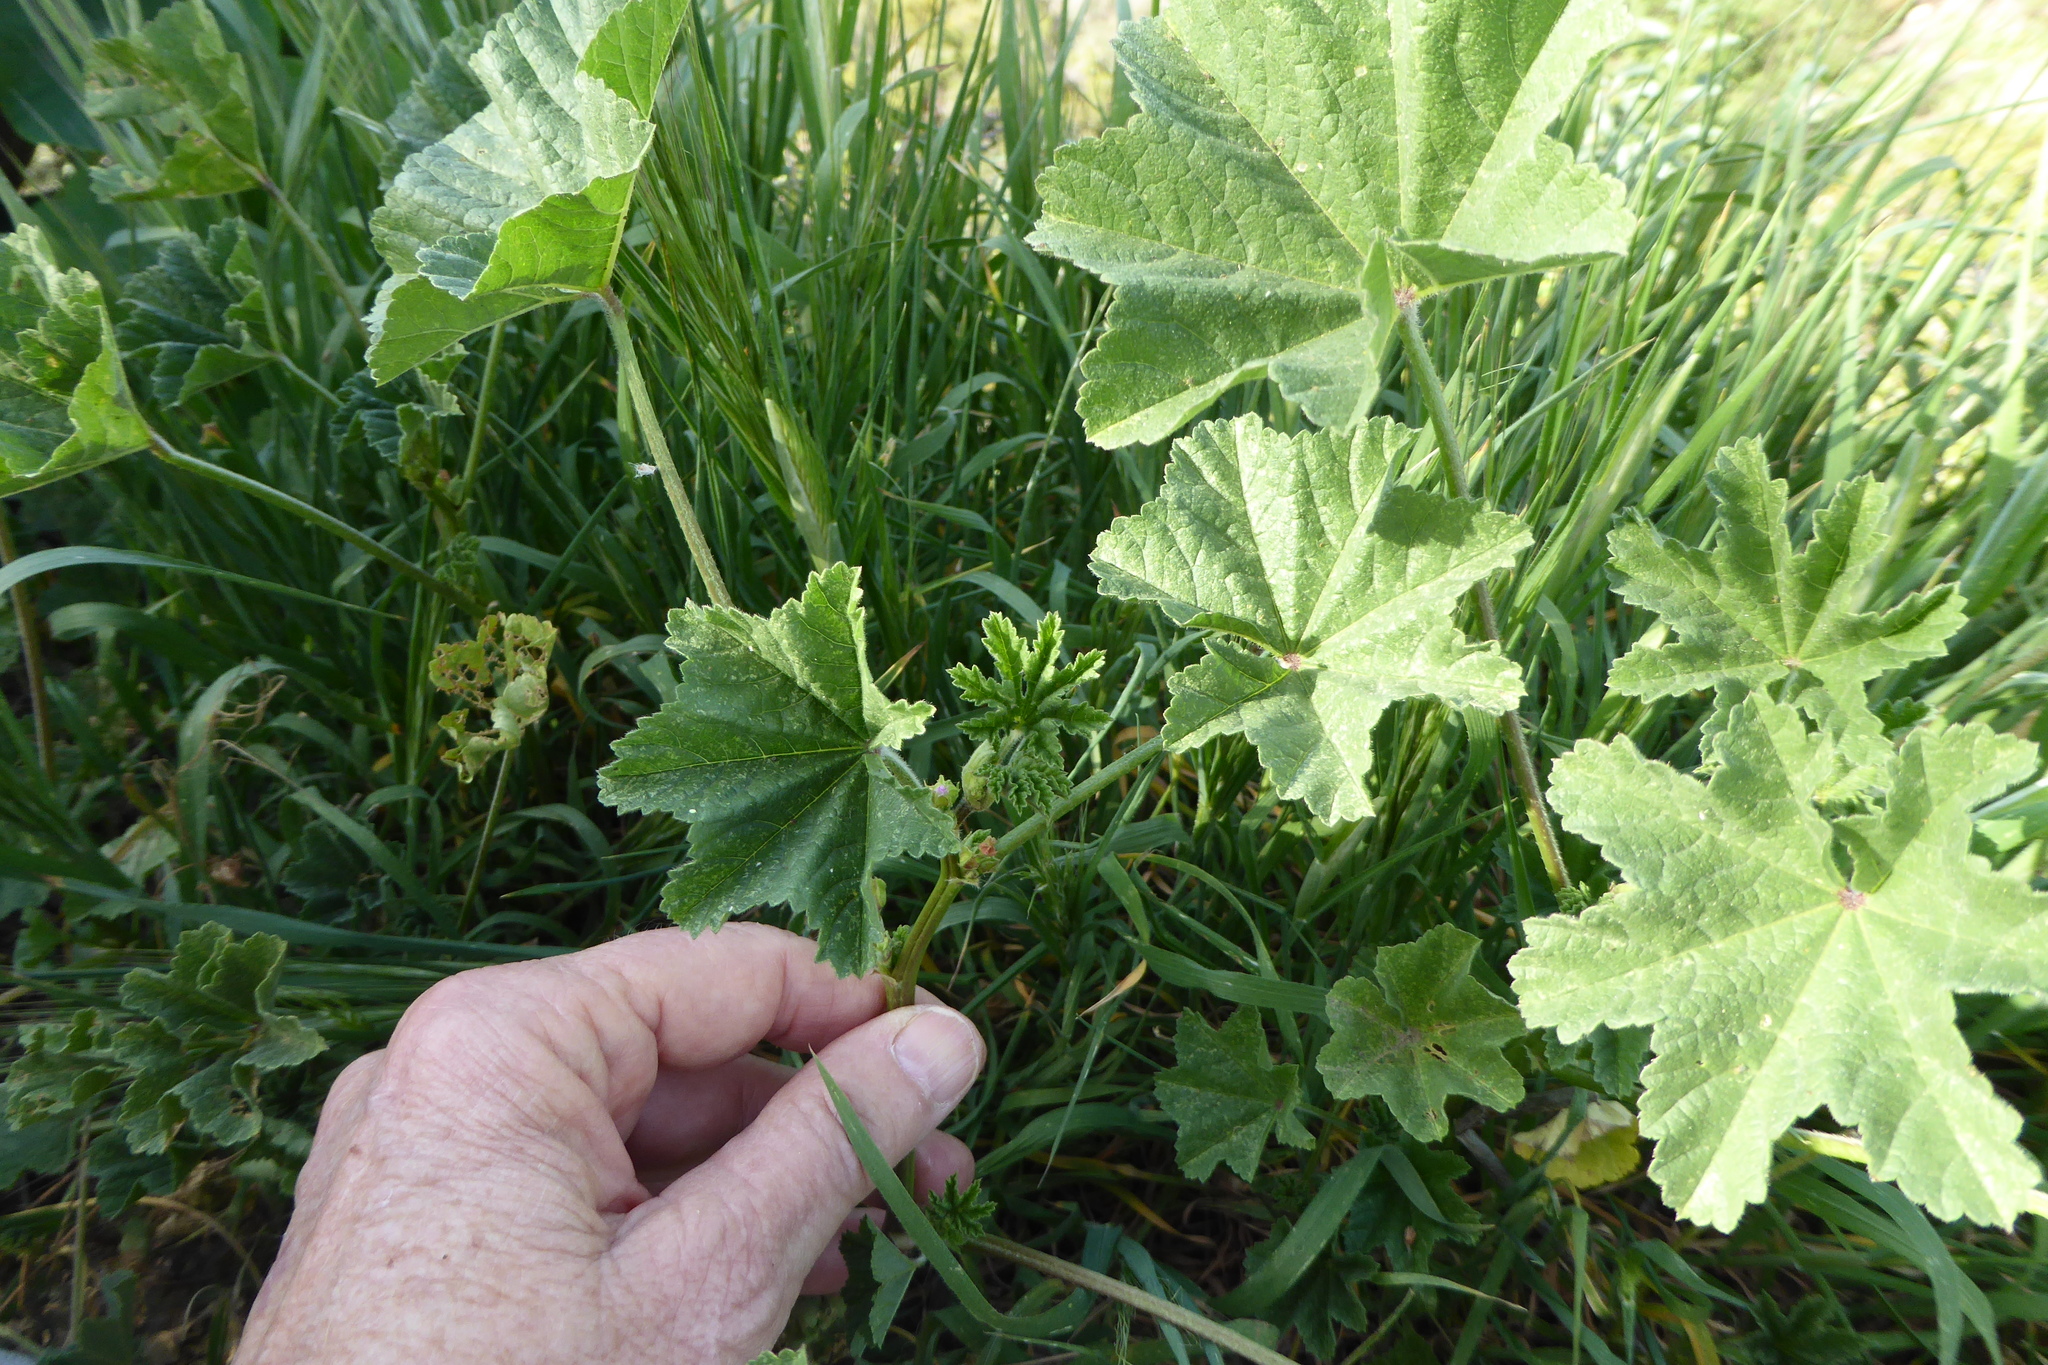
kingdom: Plantae
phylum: Tracheophyta
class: Magnoliopsida
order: Malvales
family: Malvaceae
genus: Malva
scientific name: Malva parviflora
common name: Least mallow
